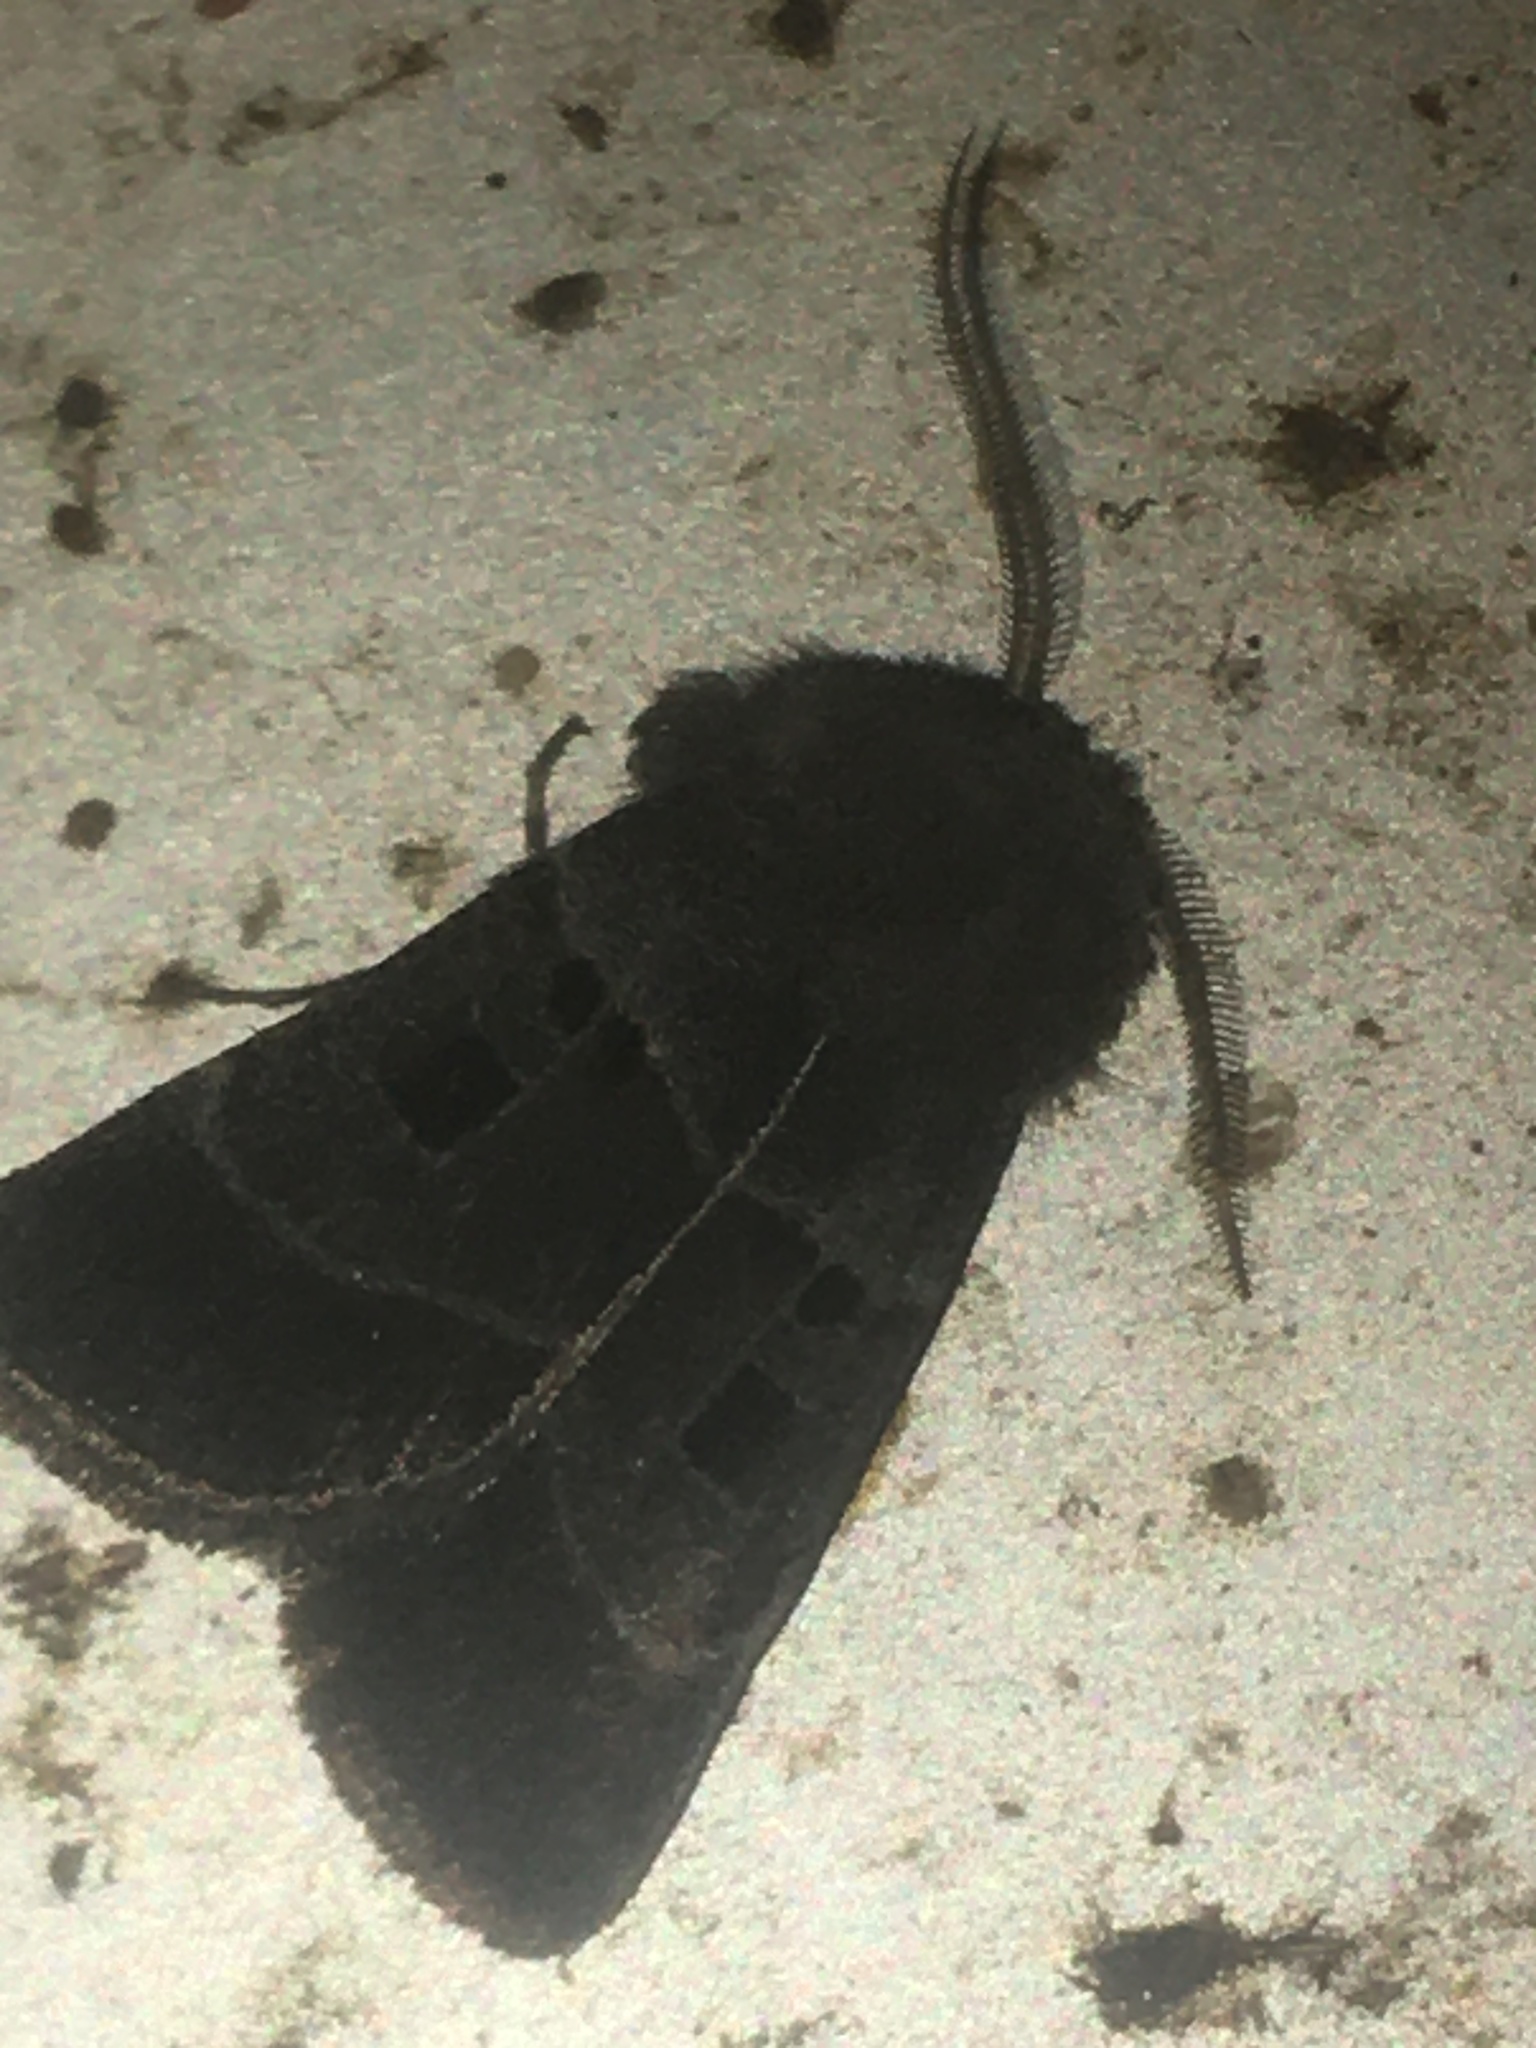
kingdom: Animalia
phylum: Arthropoda
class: Insecta
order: Lepidoptera
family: Noctuidae
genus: Agnorisma
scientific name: Agnorisma bollii
